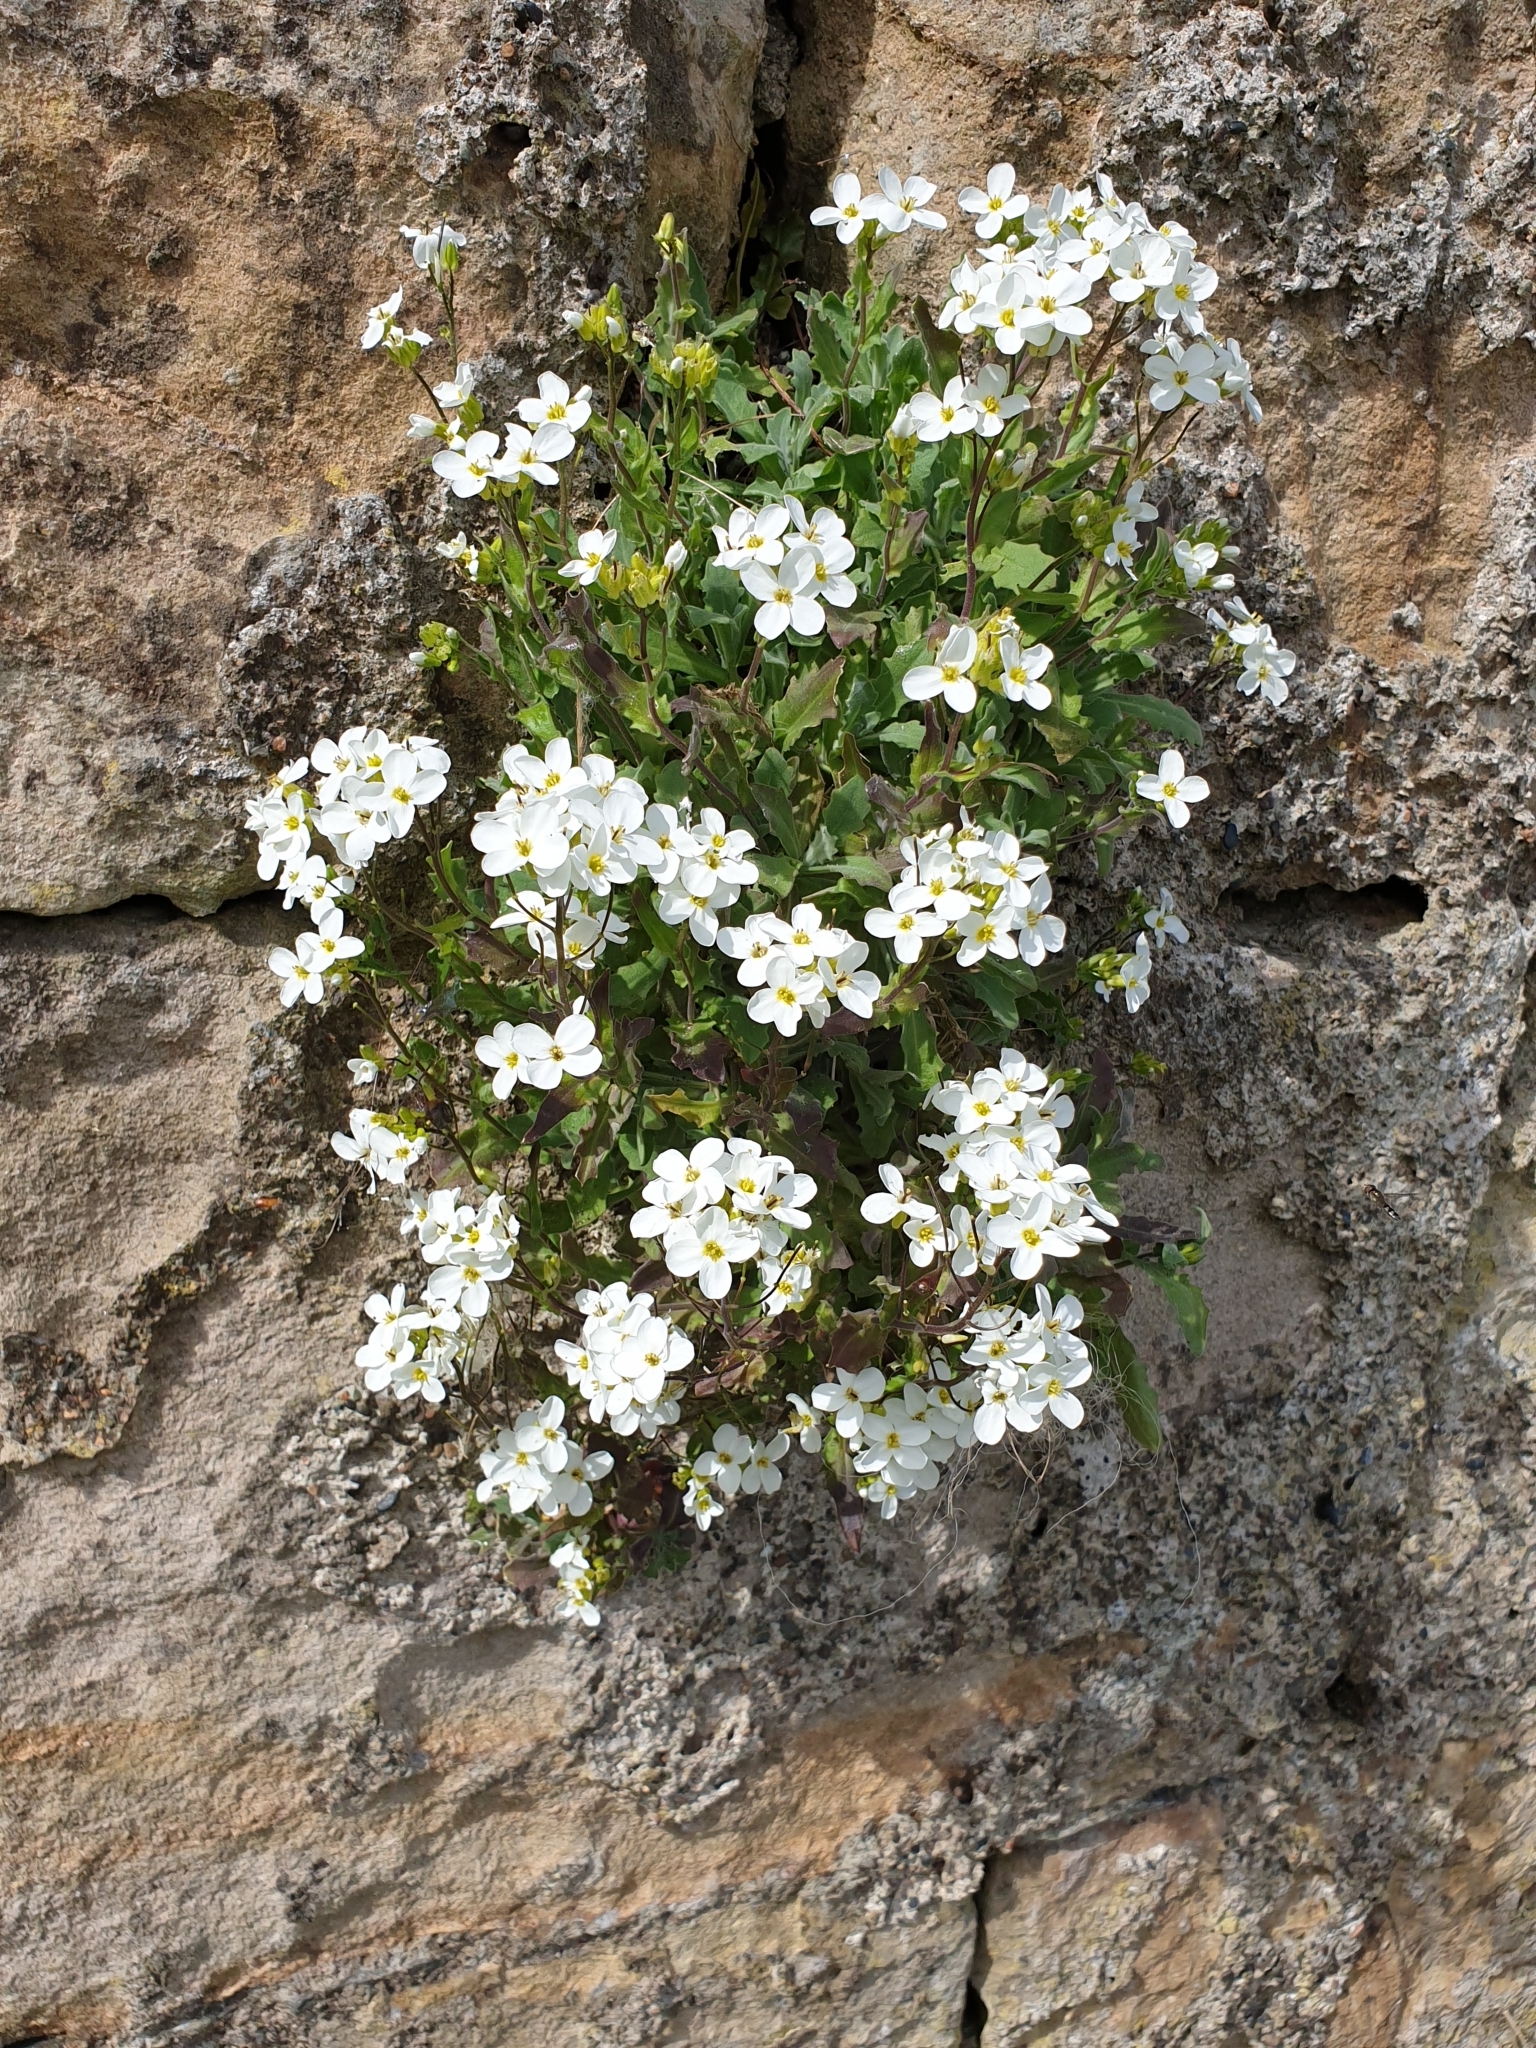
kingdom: Plantae
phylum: Tracheophyta
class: Magnoliopsida
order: Brassicales
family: Brassicaceae
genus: Arabis
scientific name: Arabis caucasica
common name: Gray rockcress
